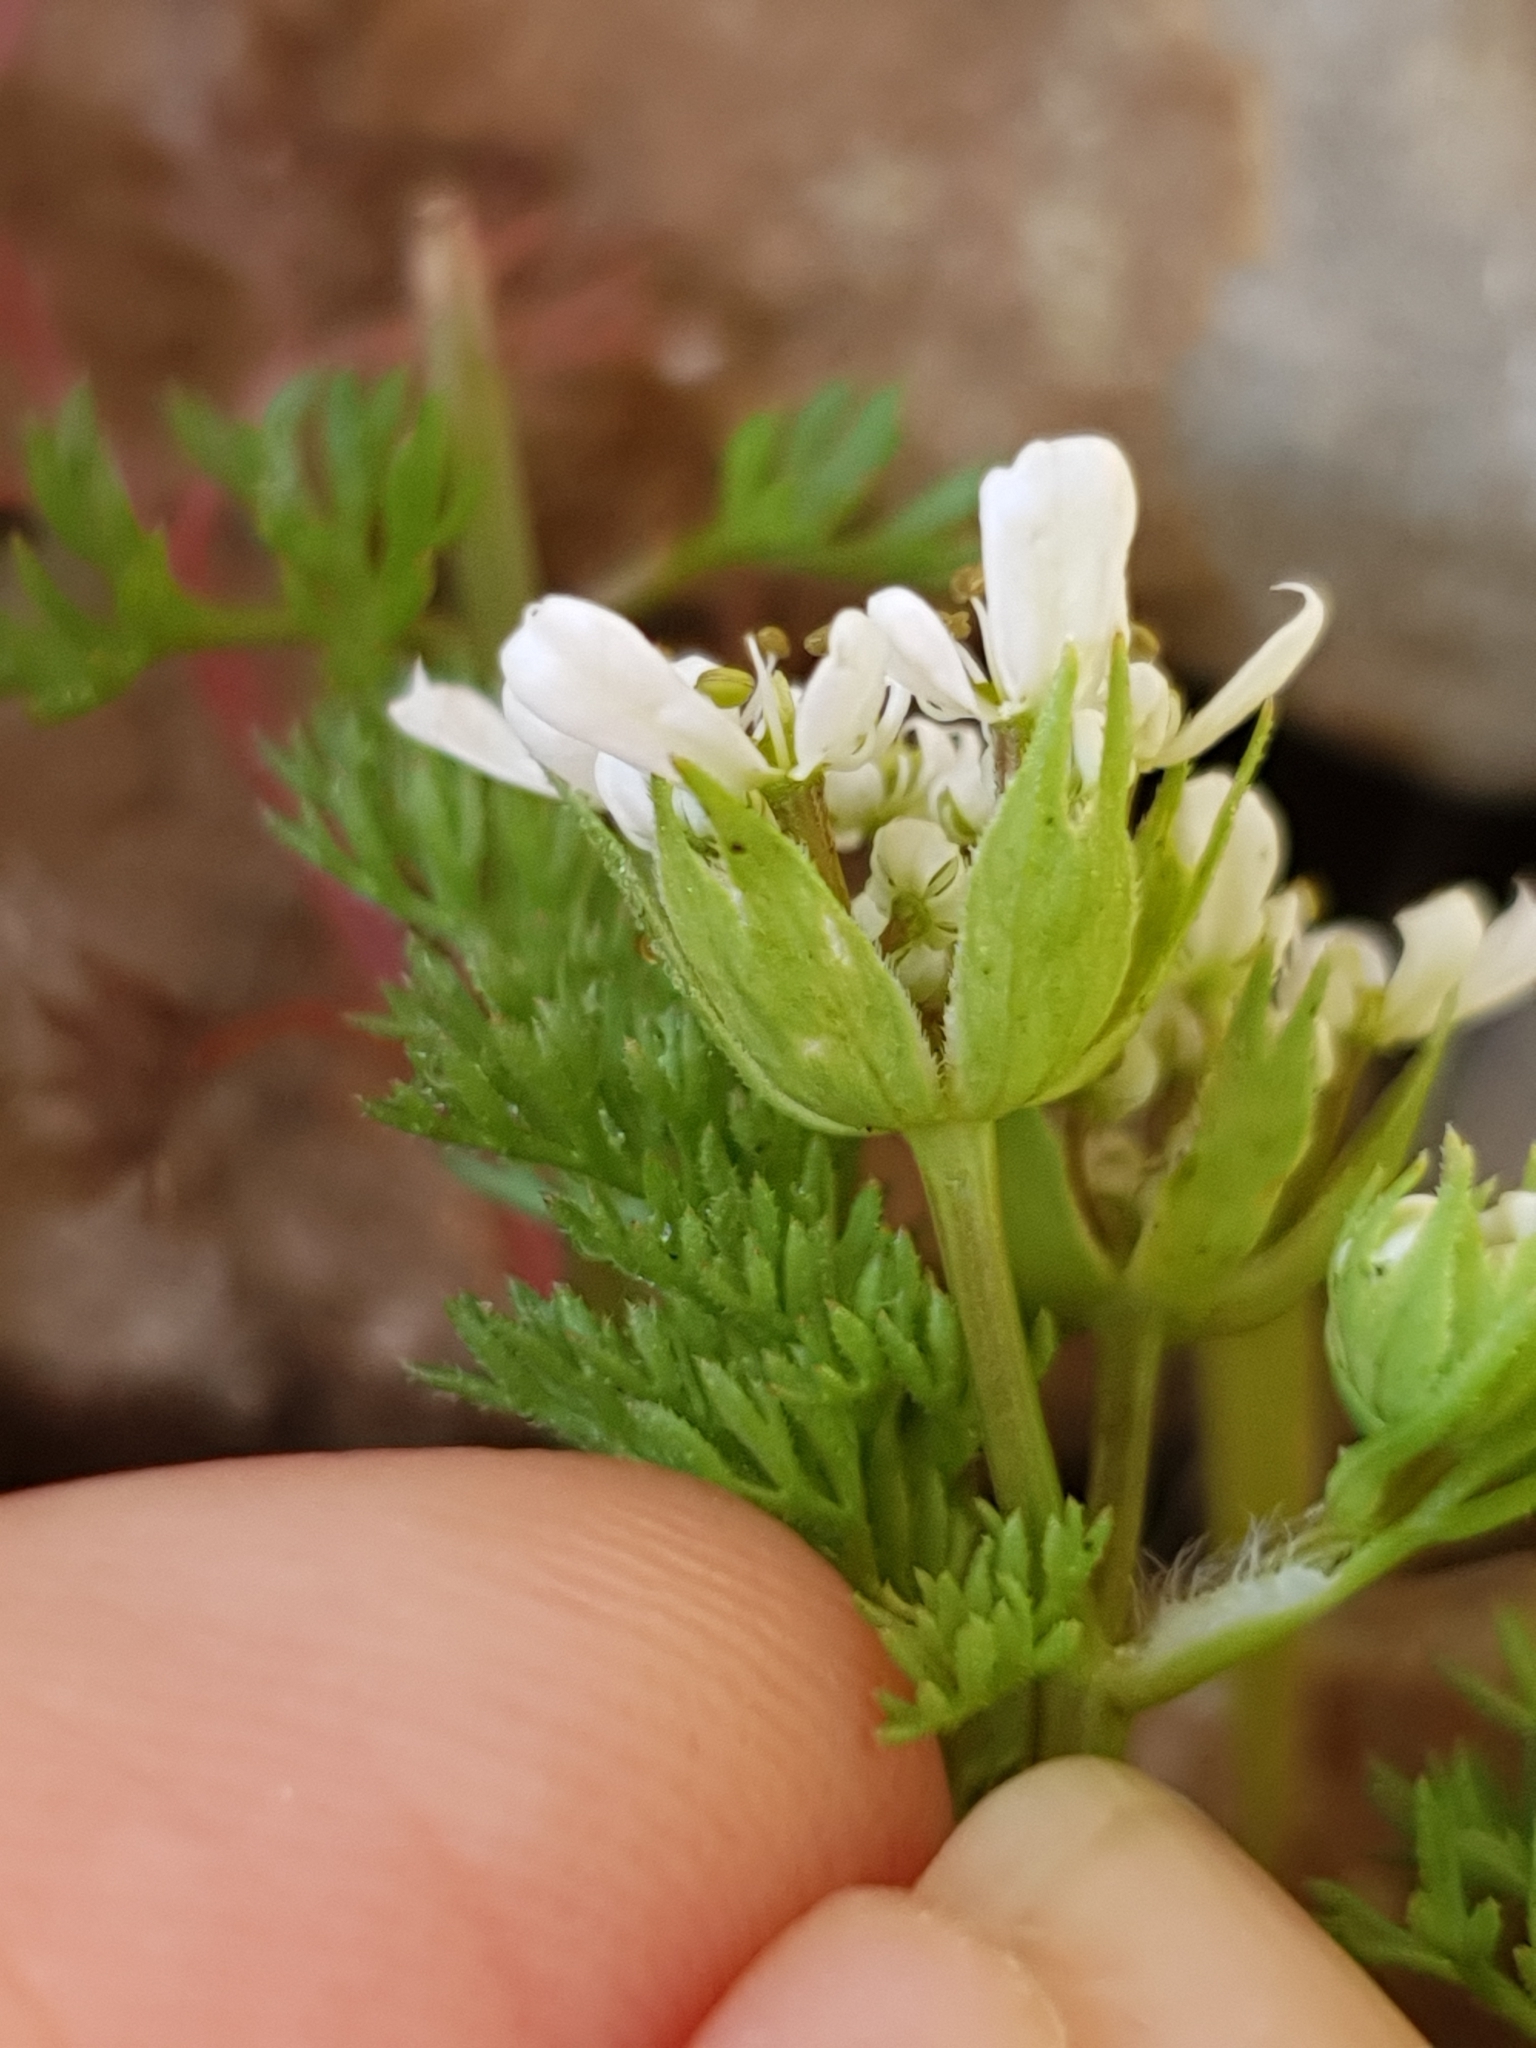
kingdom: Plantae
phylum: Tracheophyta
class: Magnoliopsida
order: Apiales
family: Apiaceae
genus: Scandix
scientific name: Scandix pecten-veneris
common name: Shepherd's-needle
